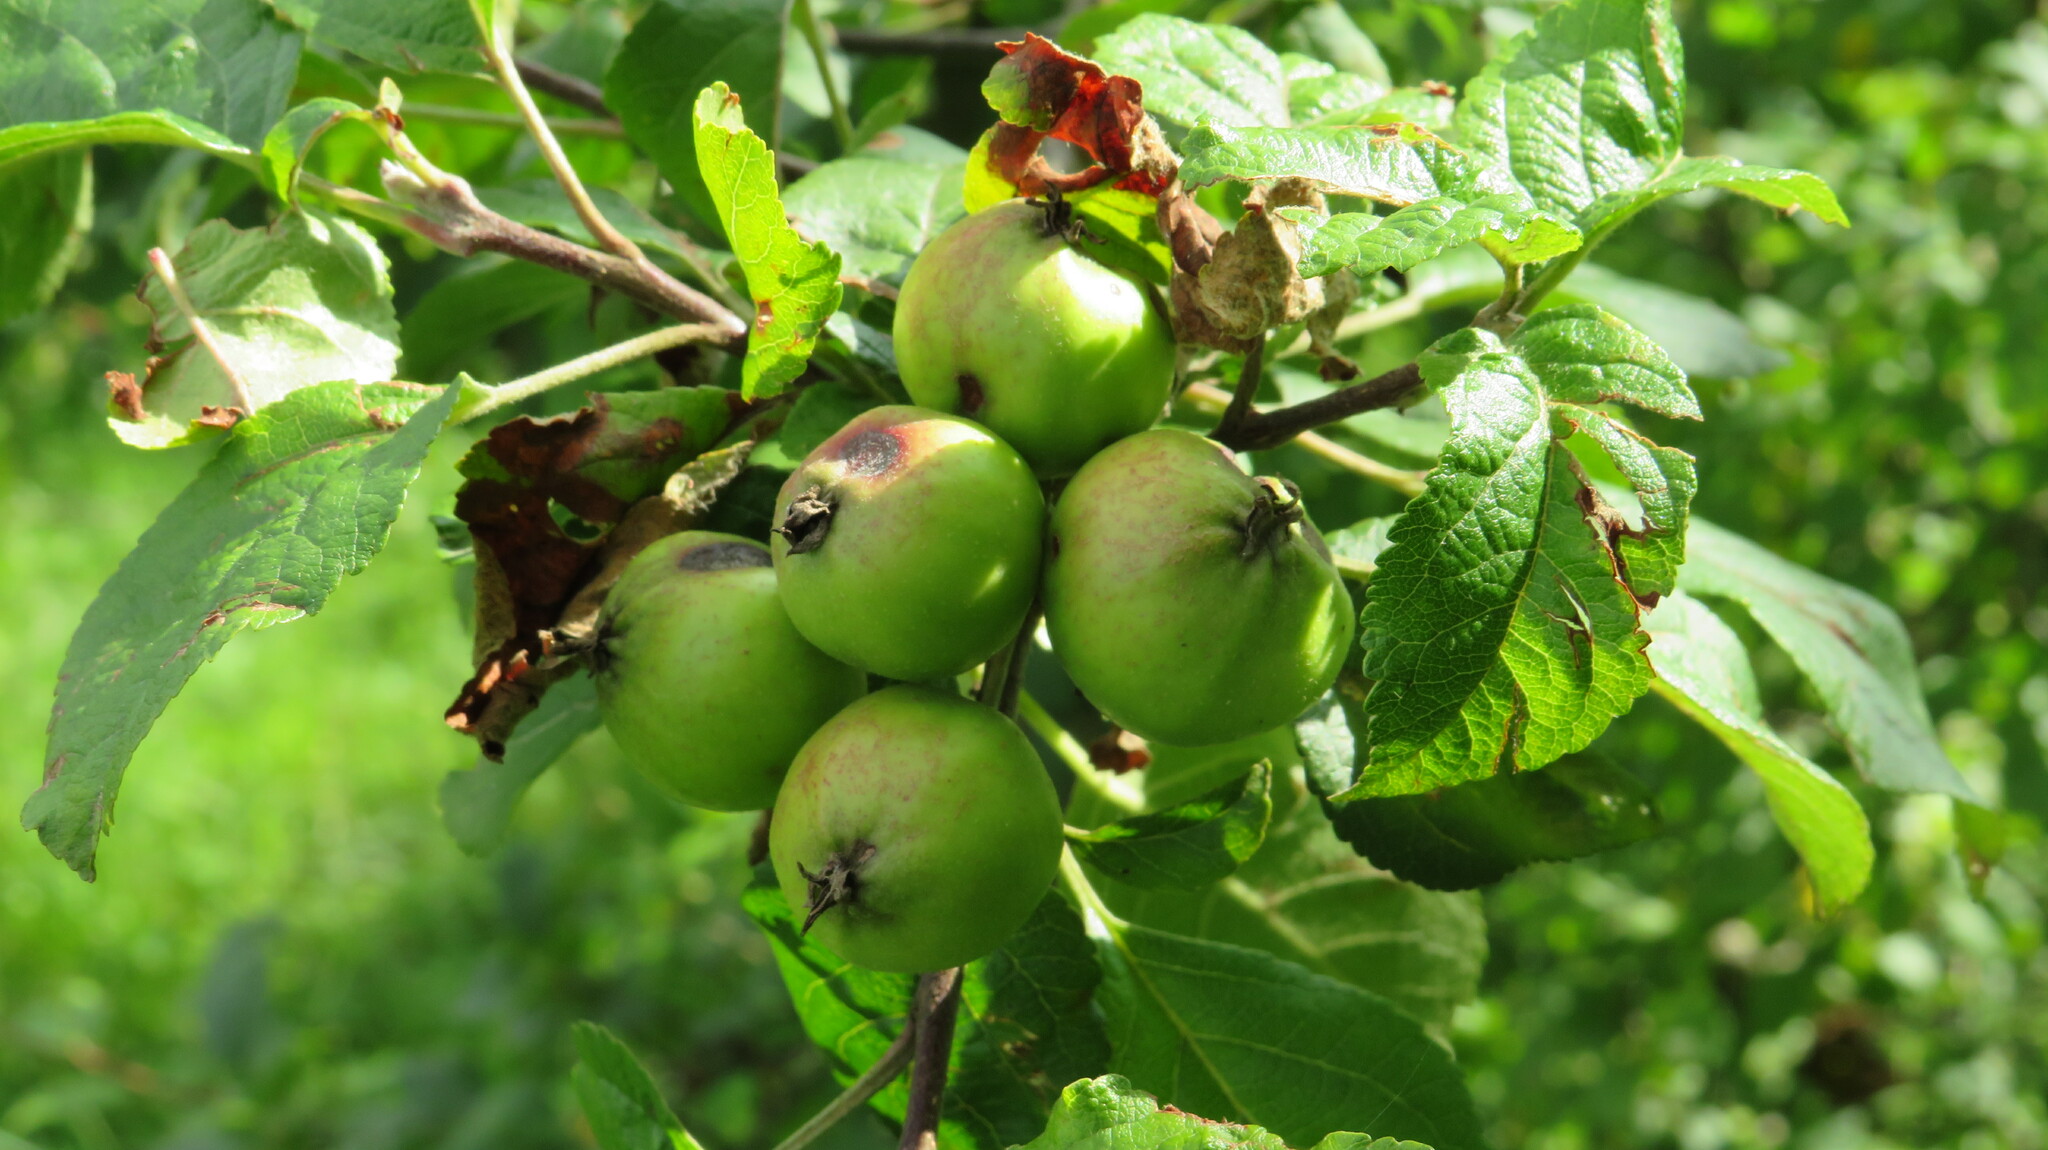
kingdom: Plantae
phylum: Tracheophyta
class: Magnoliopsida
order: Rosales
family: Rosaceae
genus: Malus
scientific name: Malus sylvestris
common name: Crab apple
